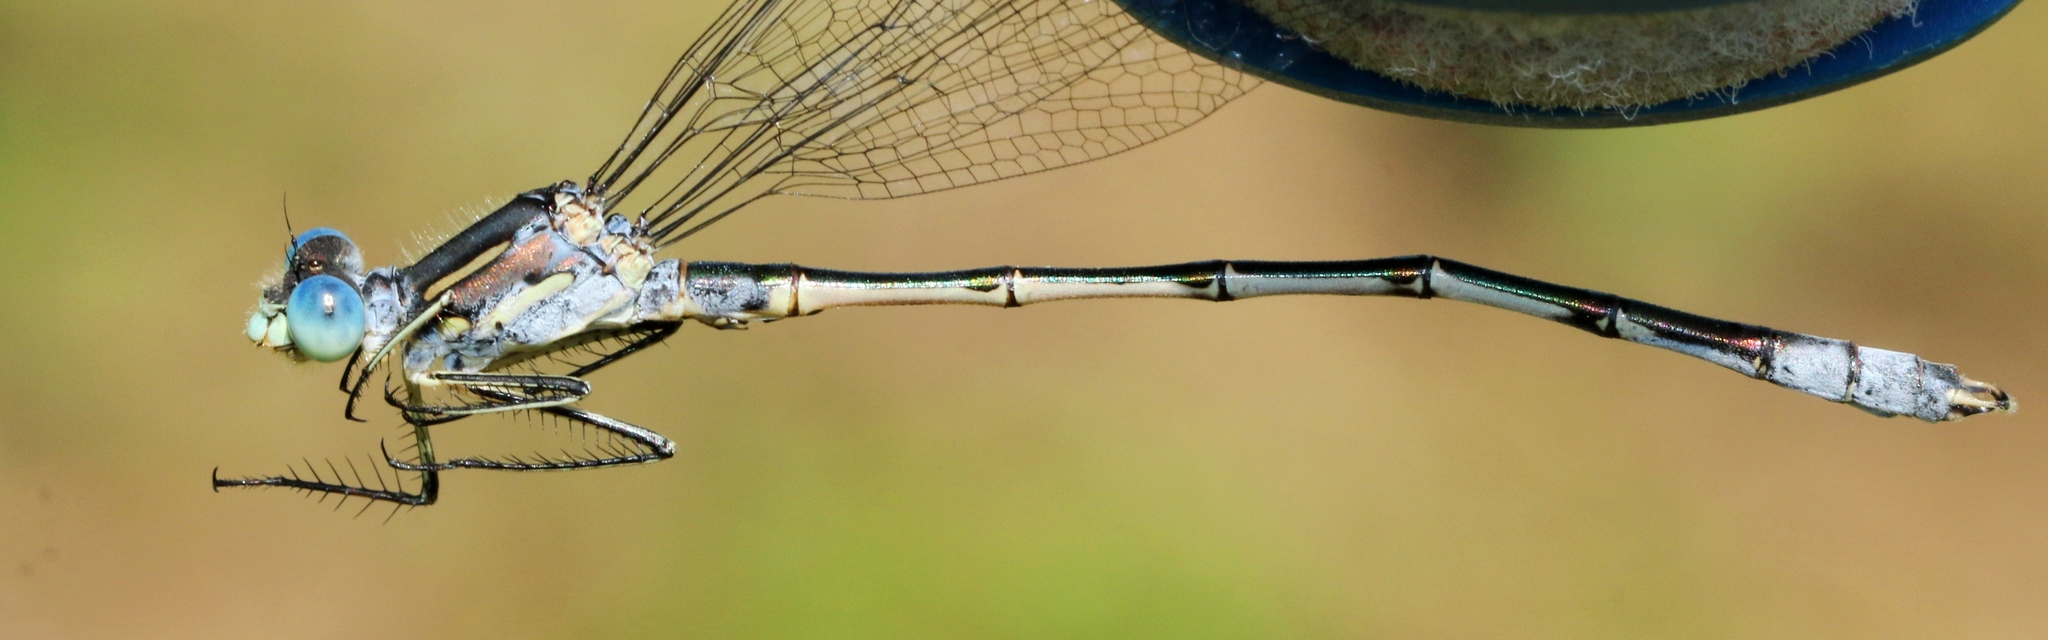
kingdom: Animalia
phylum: Arthropoda
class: Insecta
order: Odonata
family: Lestidae
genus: Lestes
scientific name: Lestes unguiculatus
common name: Lyre-tipped spreadwing
